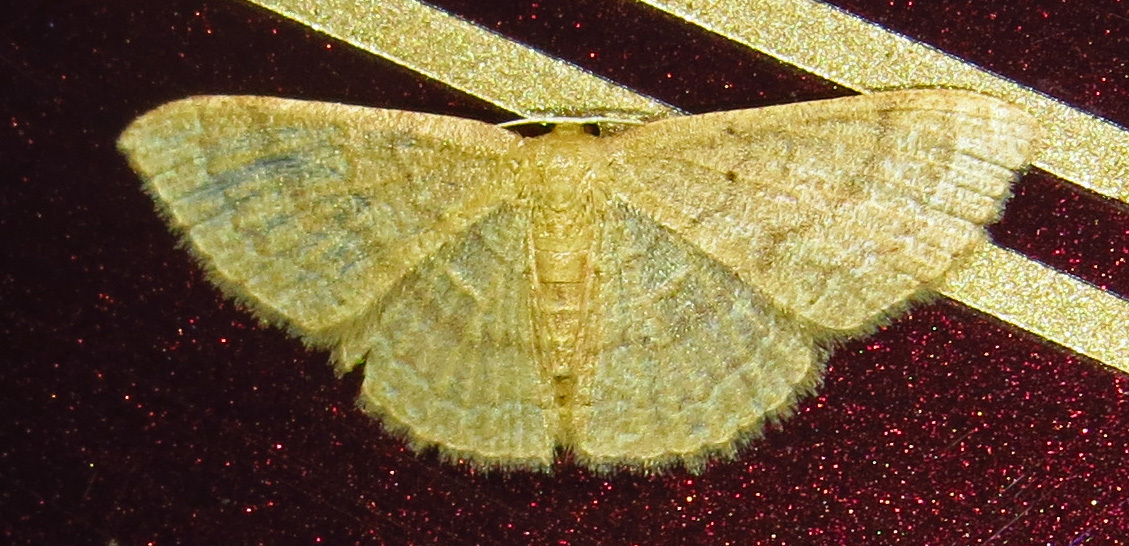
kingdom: Animalia
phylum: Arthropoda
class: Insecta
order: Lepidoptera
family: Geometridae
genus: Pleuroprucha
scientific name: Pleuroprucha insulsaria
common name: Common tan wave
